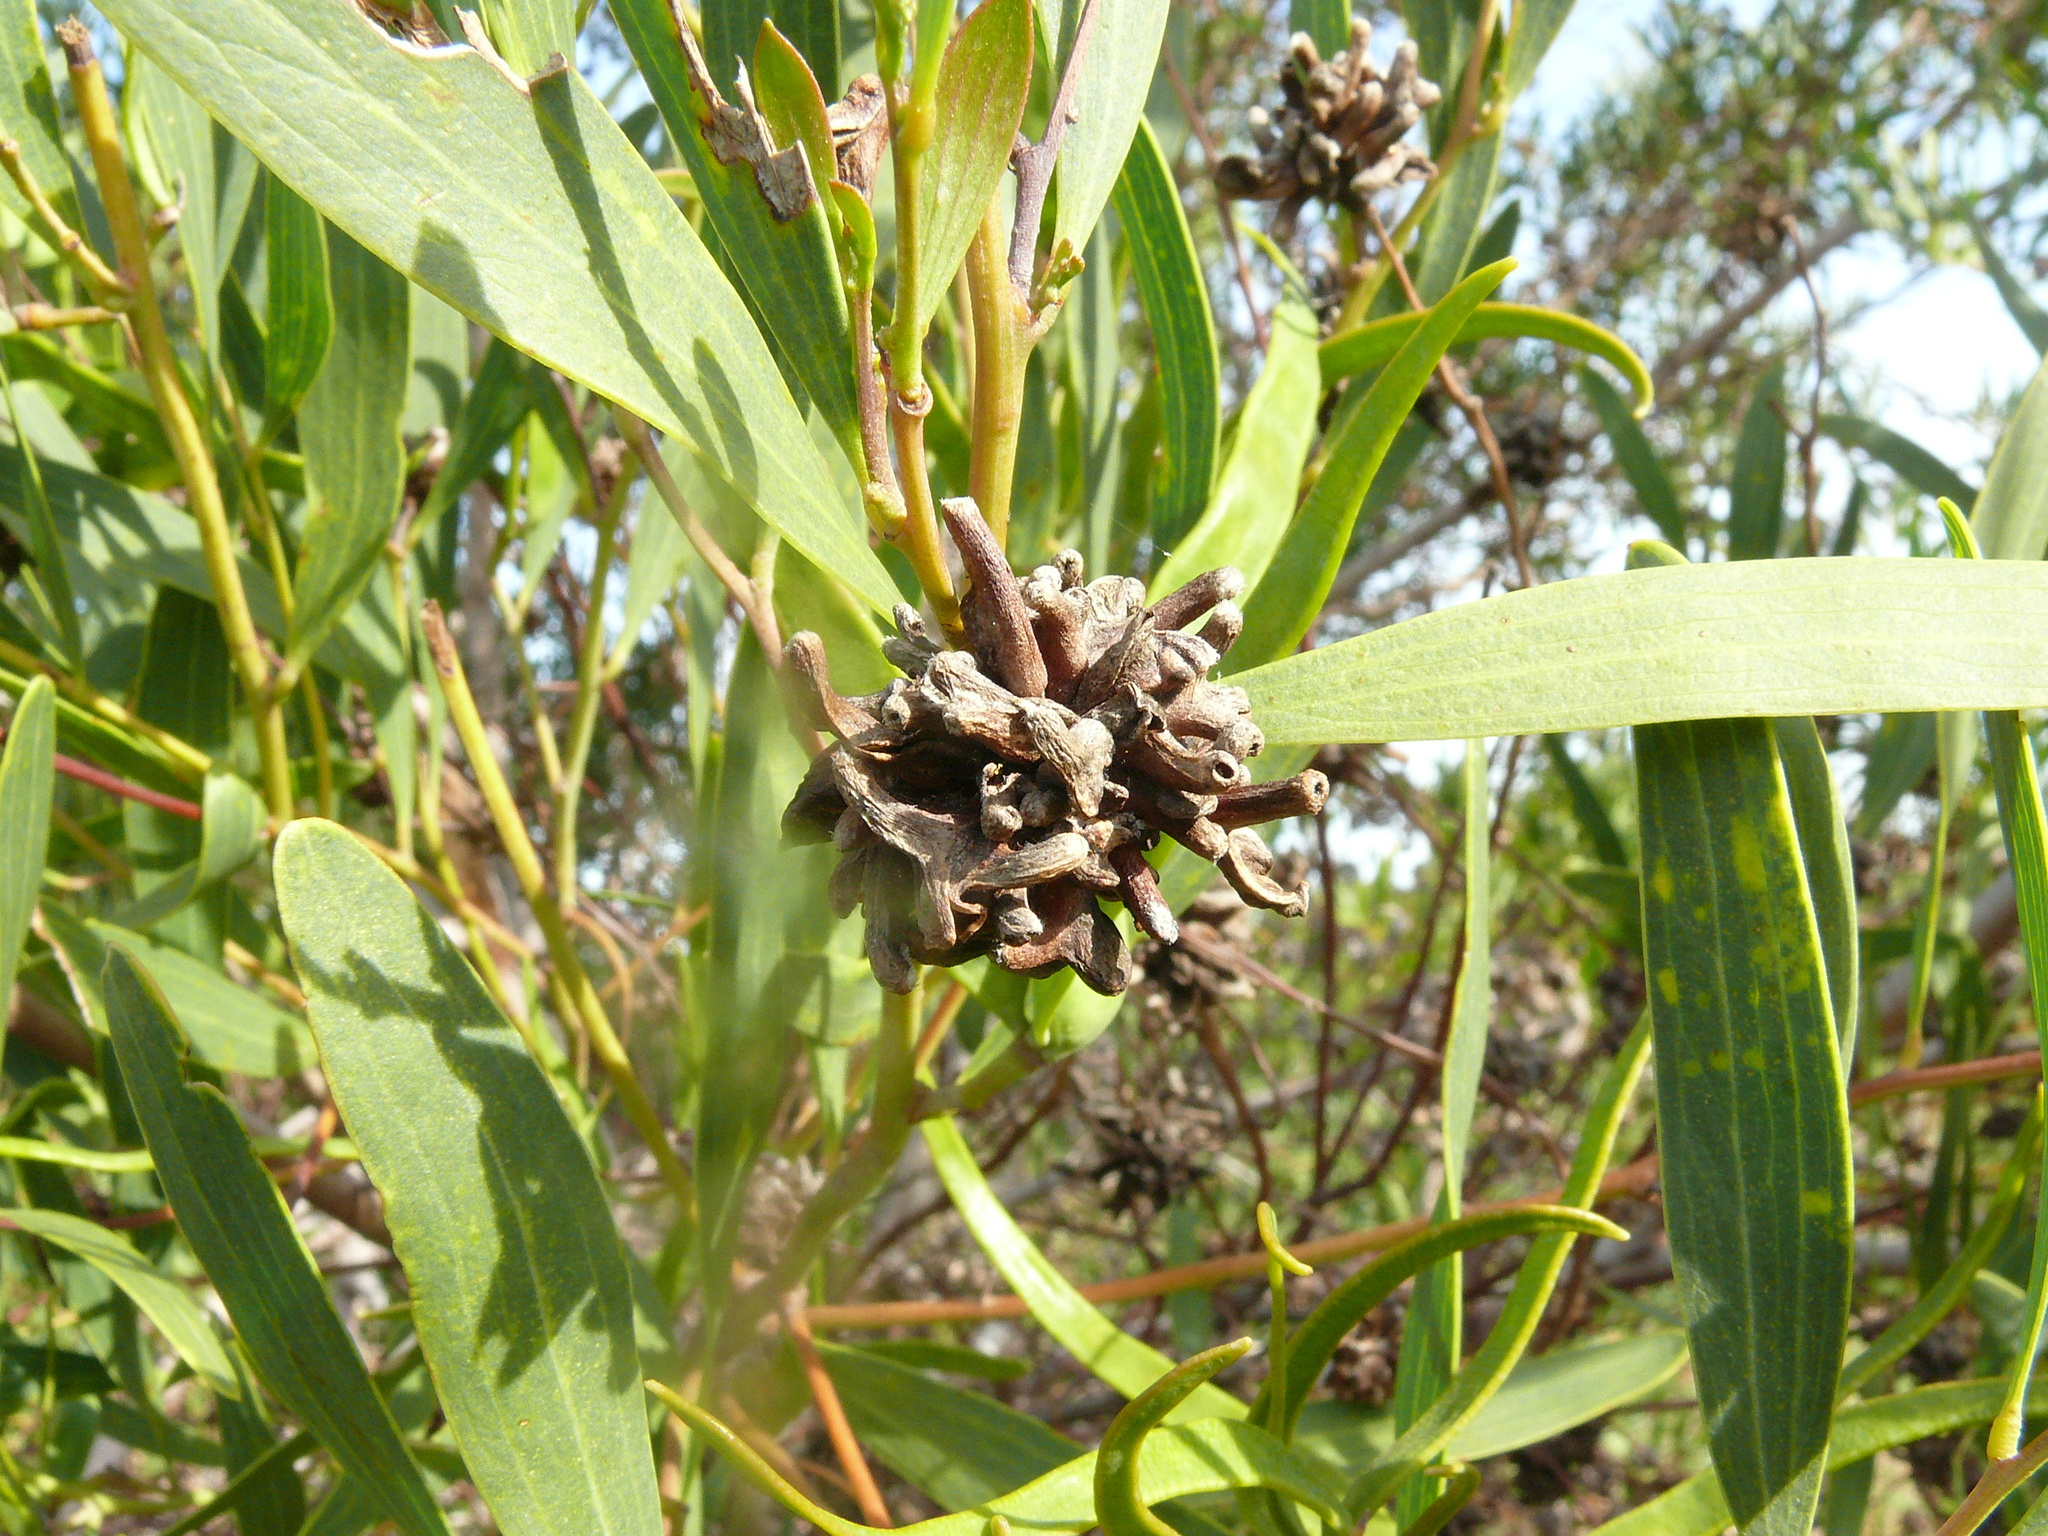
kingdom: Animalia
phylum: Arthropoda
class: Insecta
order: Diptera
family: Cecidomyiidae
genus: Dasineura
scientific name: Dasineura dielsi
